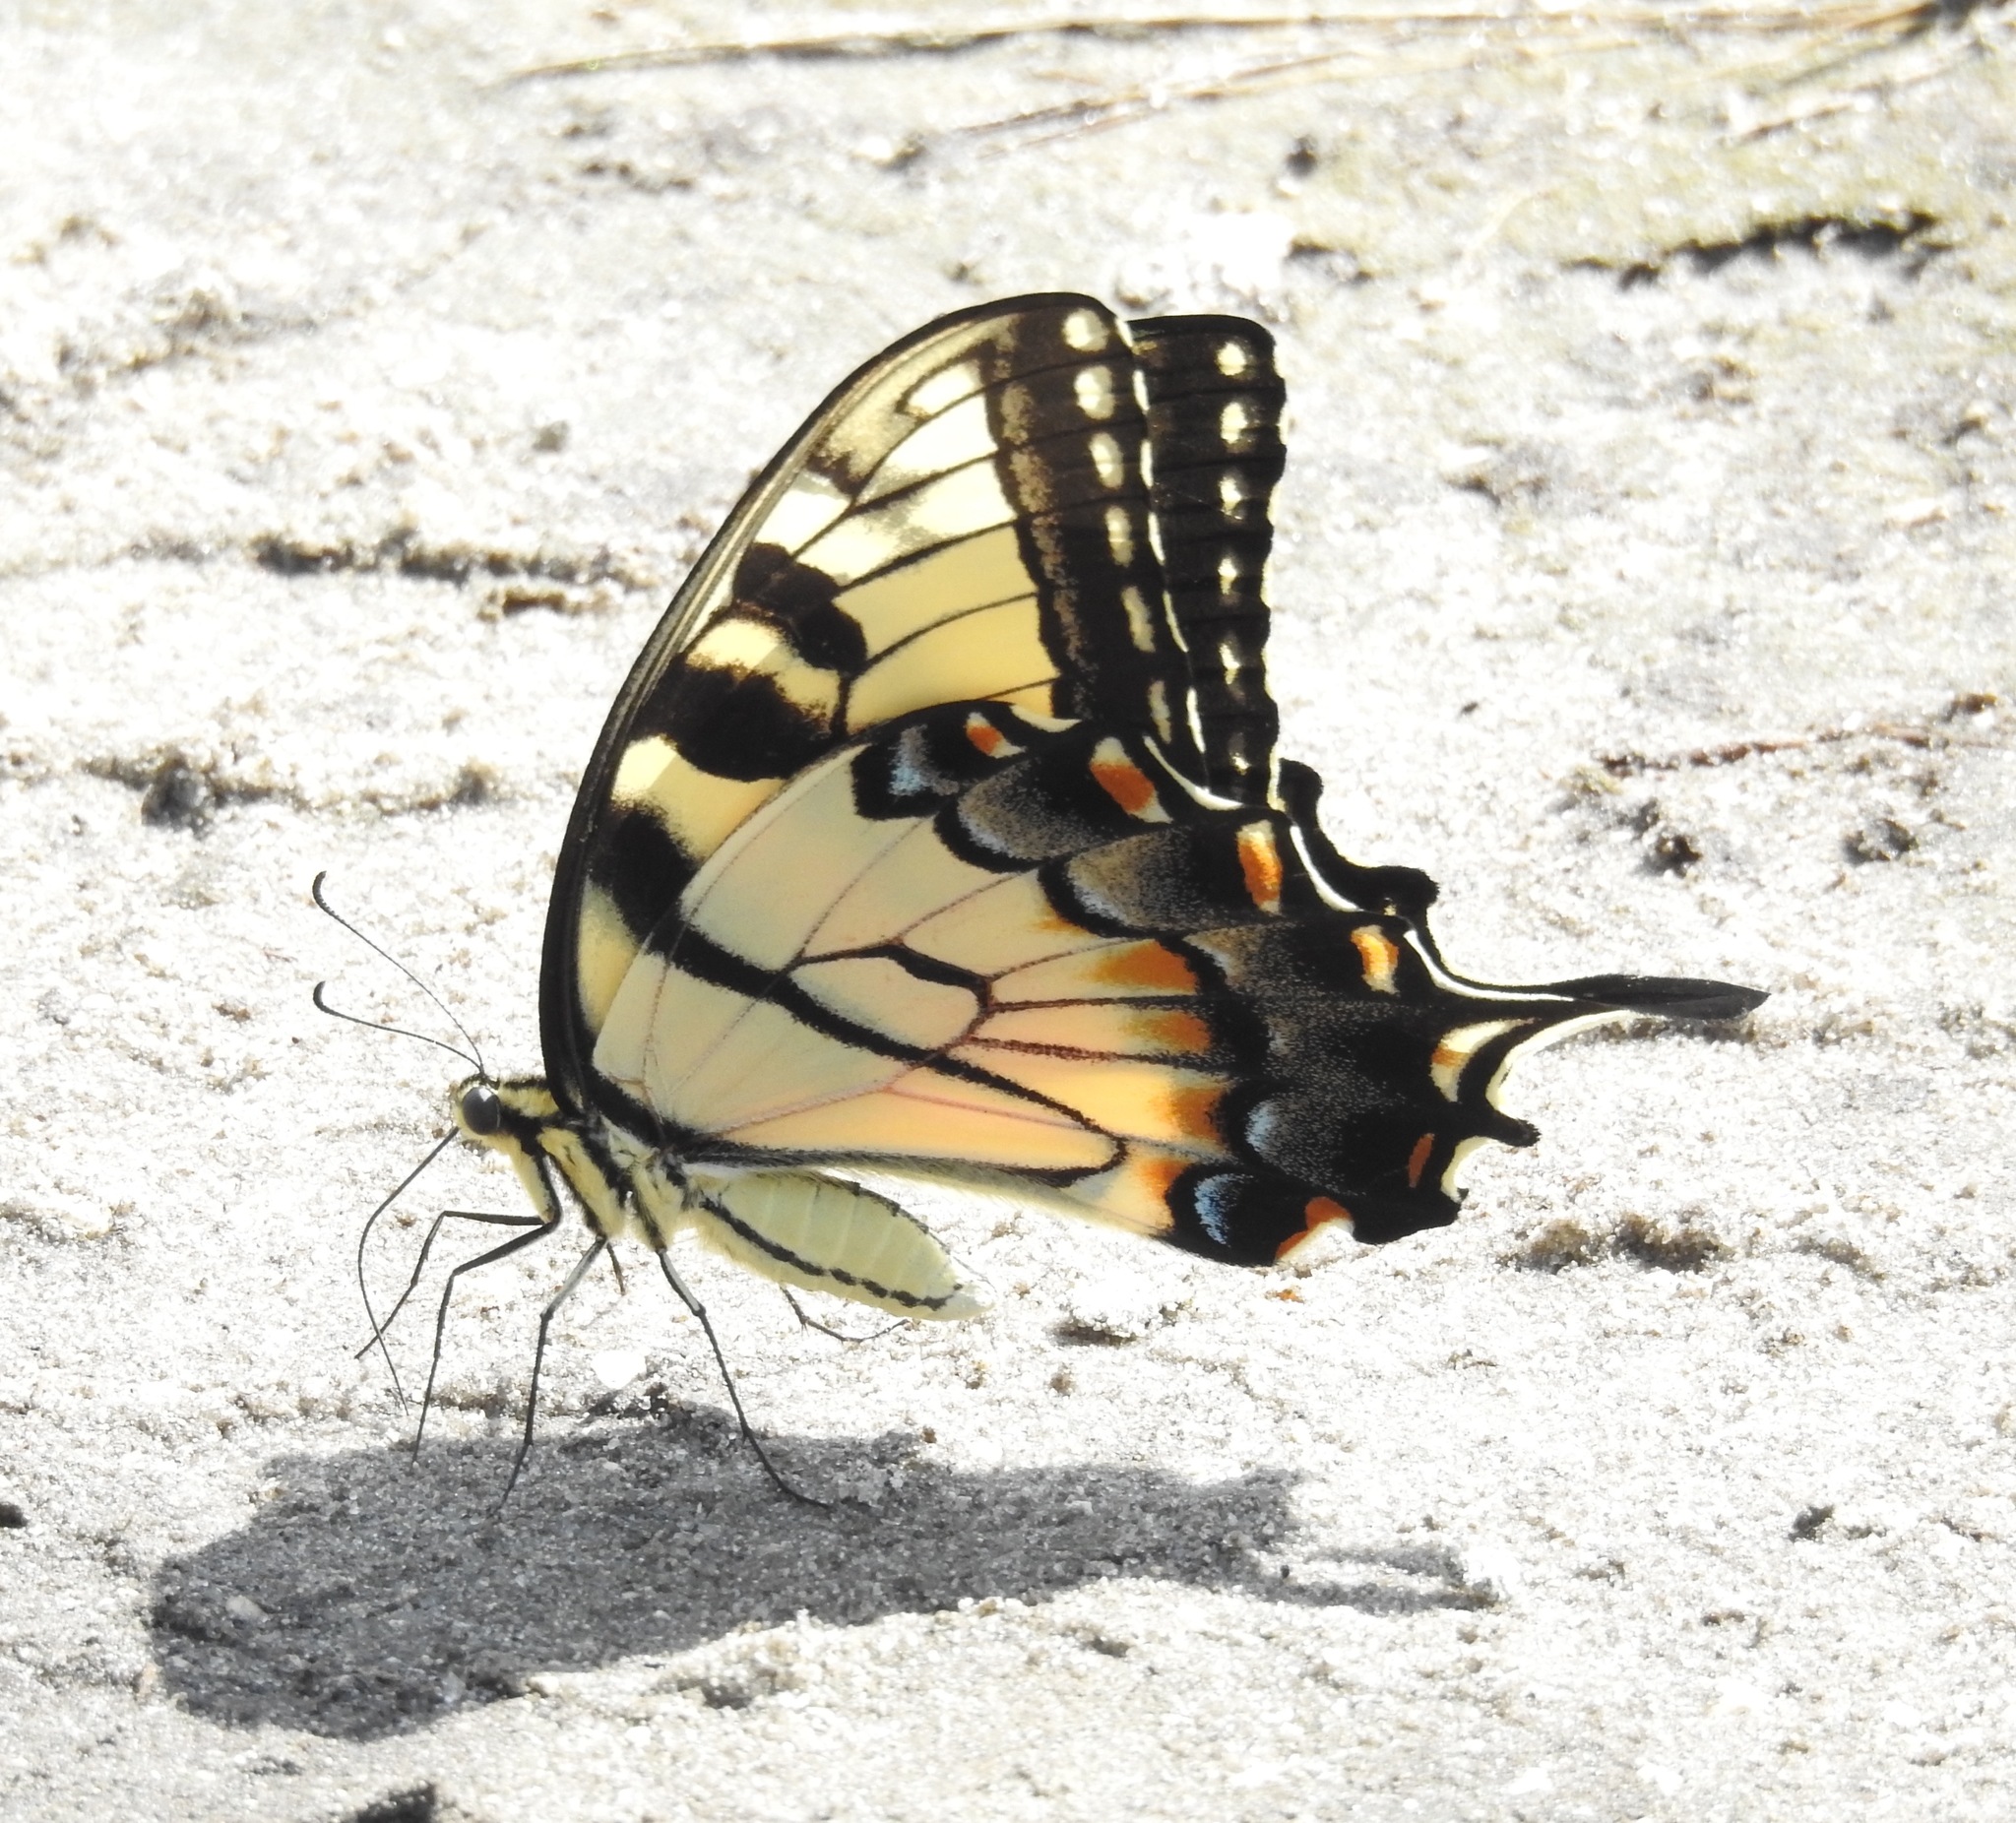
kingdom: Animalia
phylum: Arthropoda
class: Insecta
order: Lepidoptera
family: Papilionidae
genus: Papilio
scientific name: Papilio glaucus
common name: Tiger swallowtail
